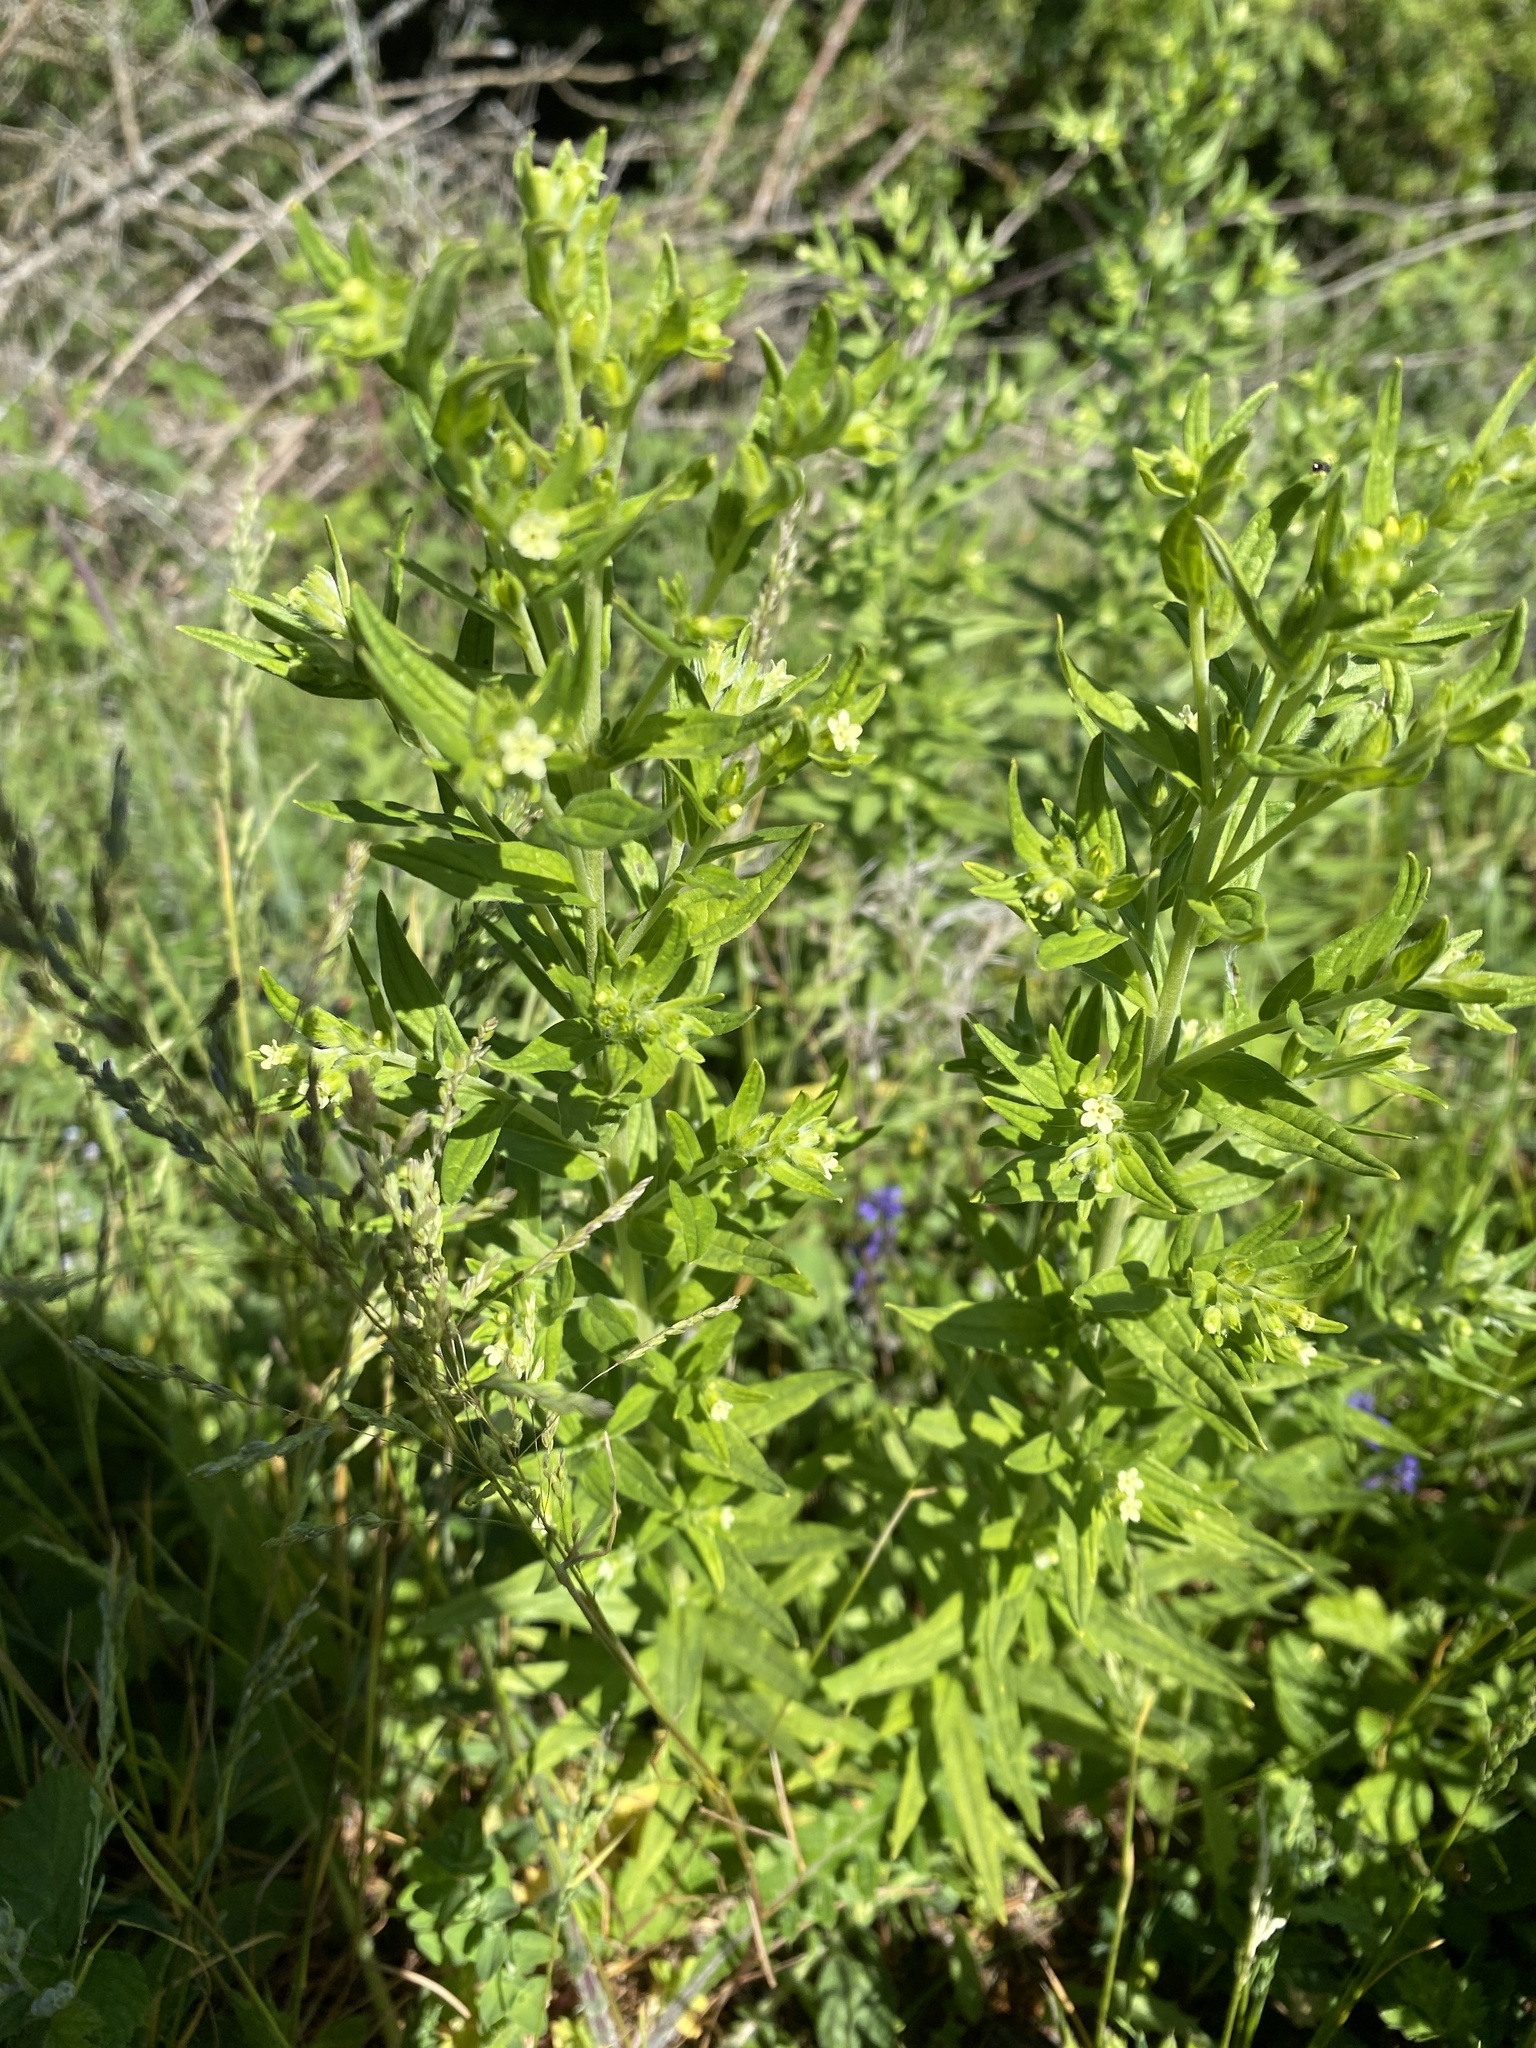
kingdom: Plantae
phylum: Tracheophyta
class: Magnoliopsida
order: Boraginales
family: Boraginaceae
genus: Lithospermum
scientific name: Lithospermum officinale
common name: Common gromwell
